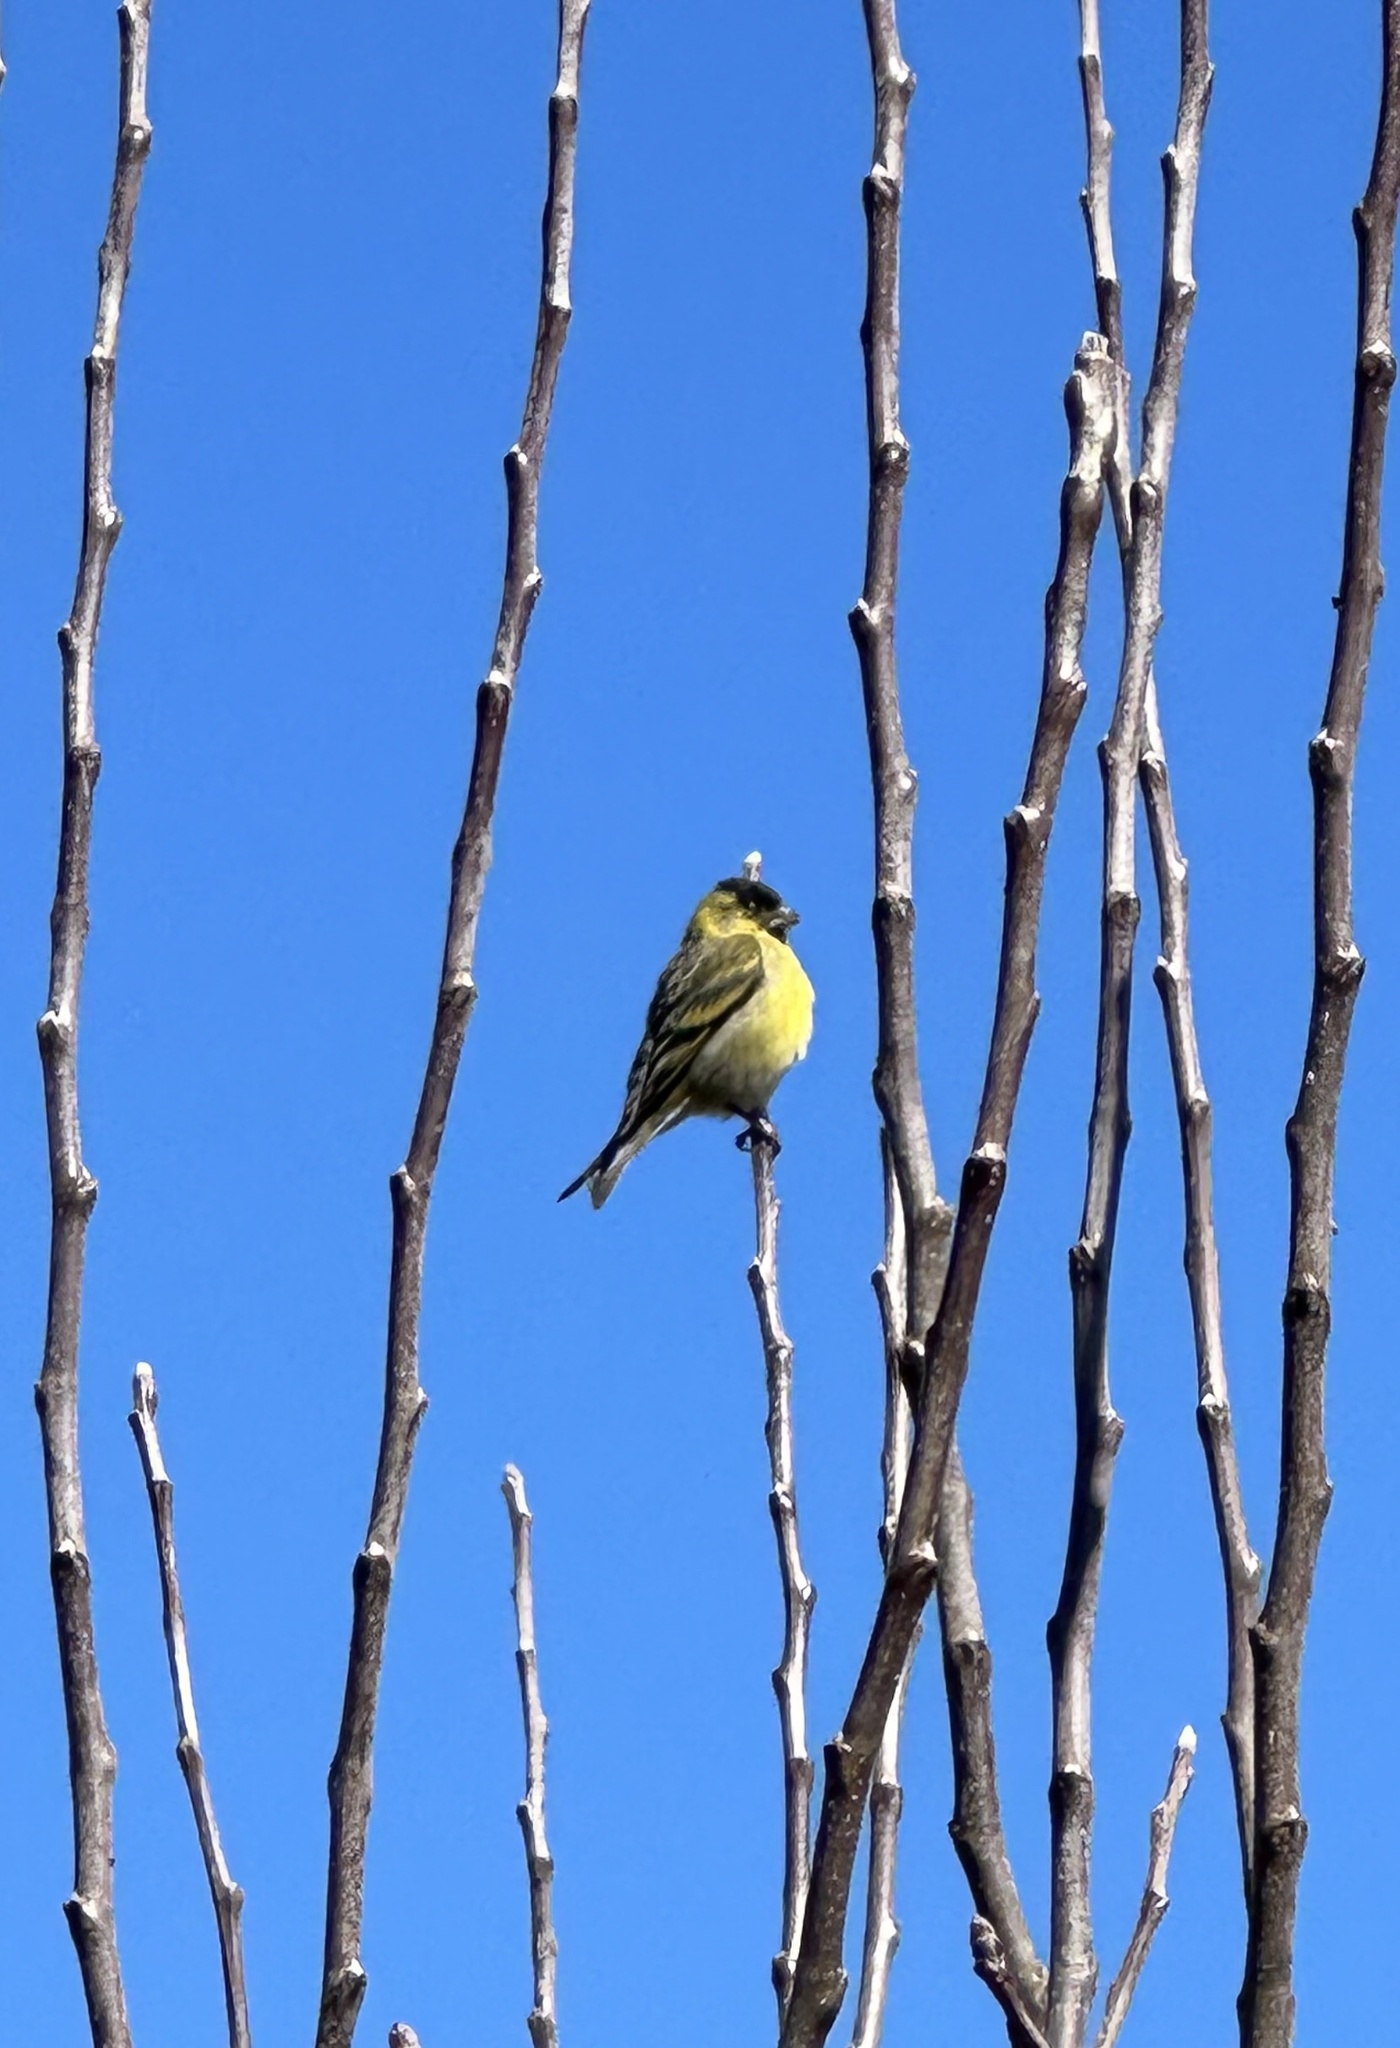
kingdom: Animalia
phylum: Chordata
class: Aves
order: Passeriformes
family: Fringillidae
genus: Spinus
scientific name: Spinus barbatus
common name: Black-chinned siskin
